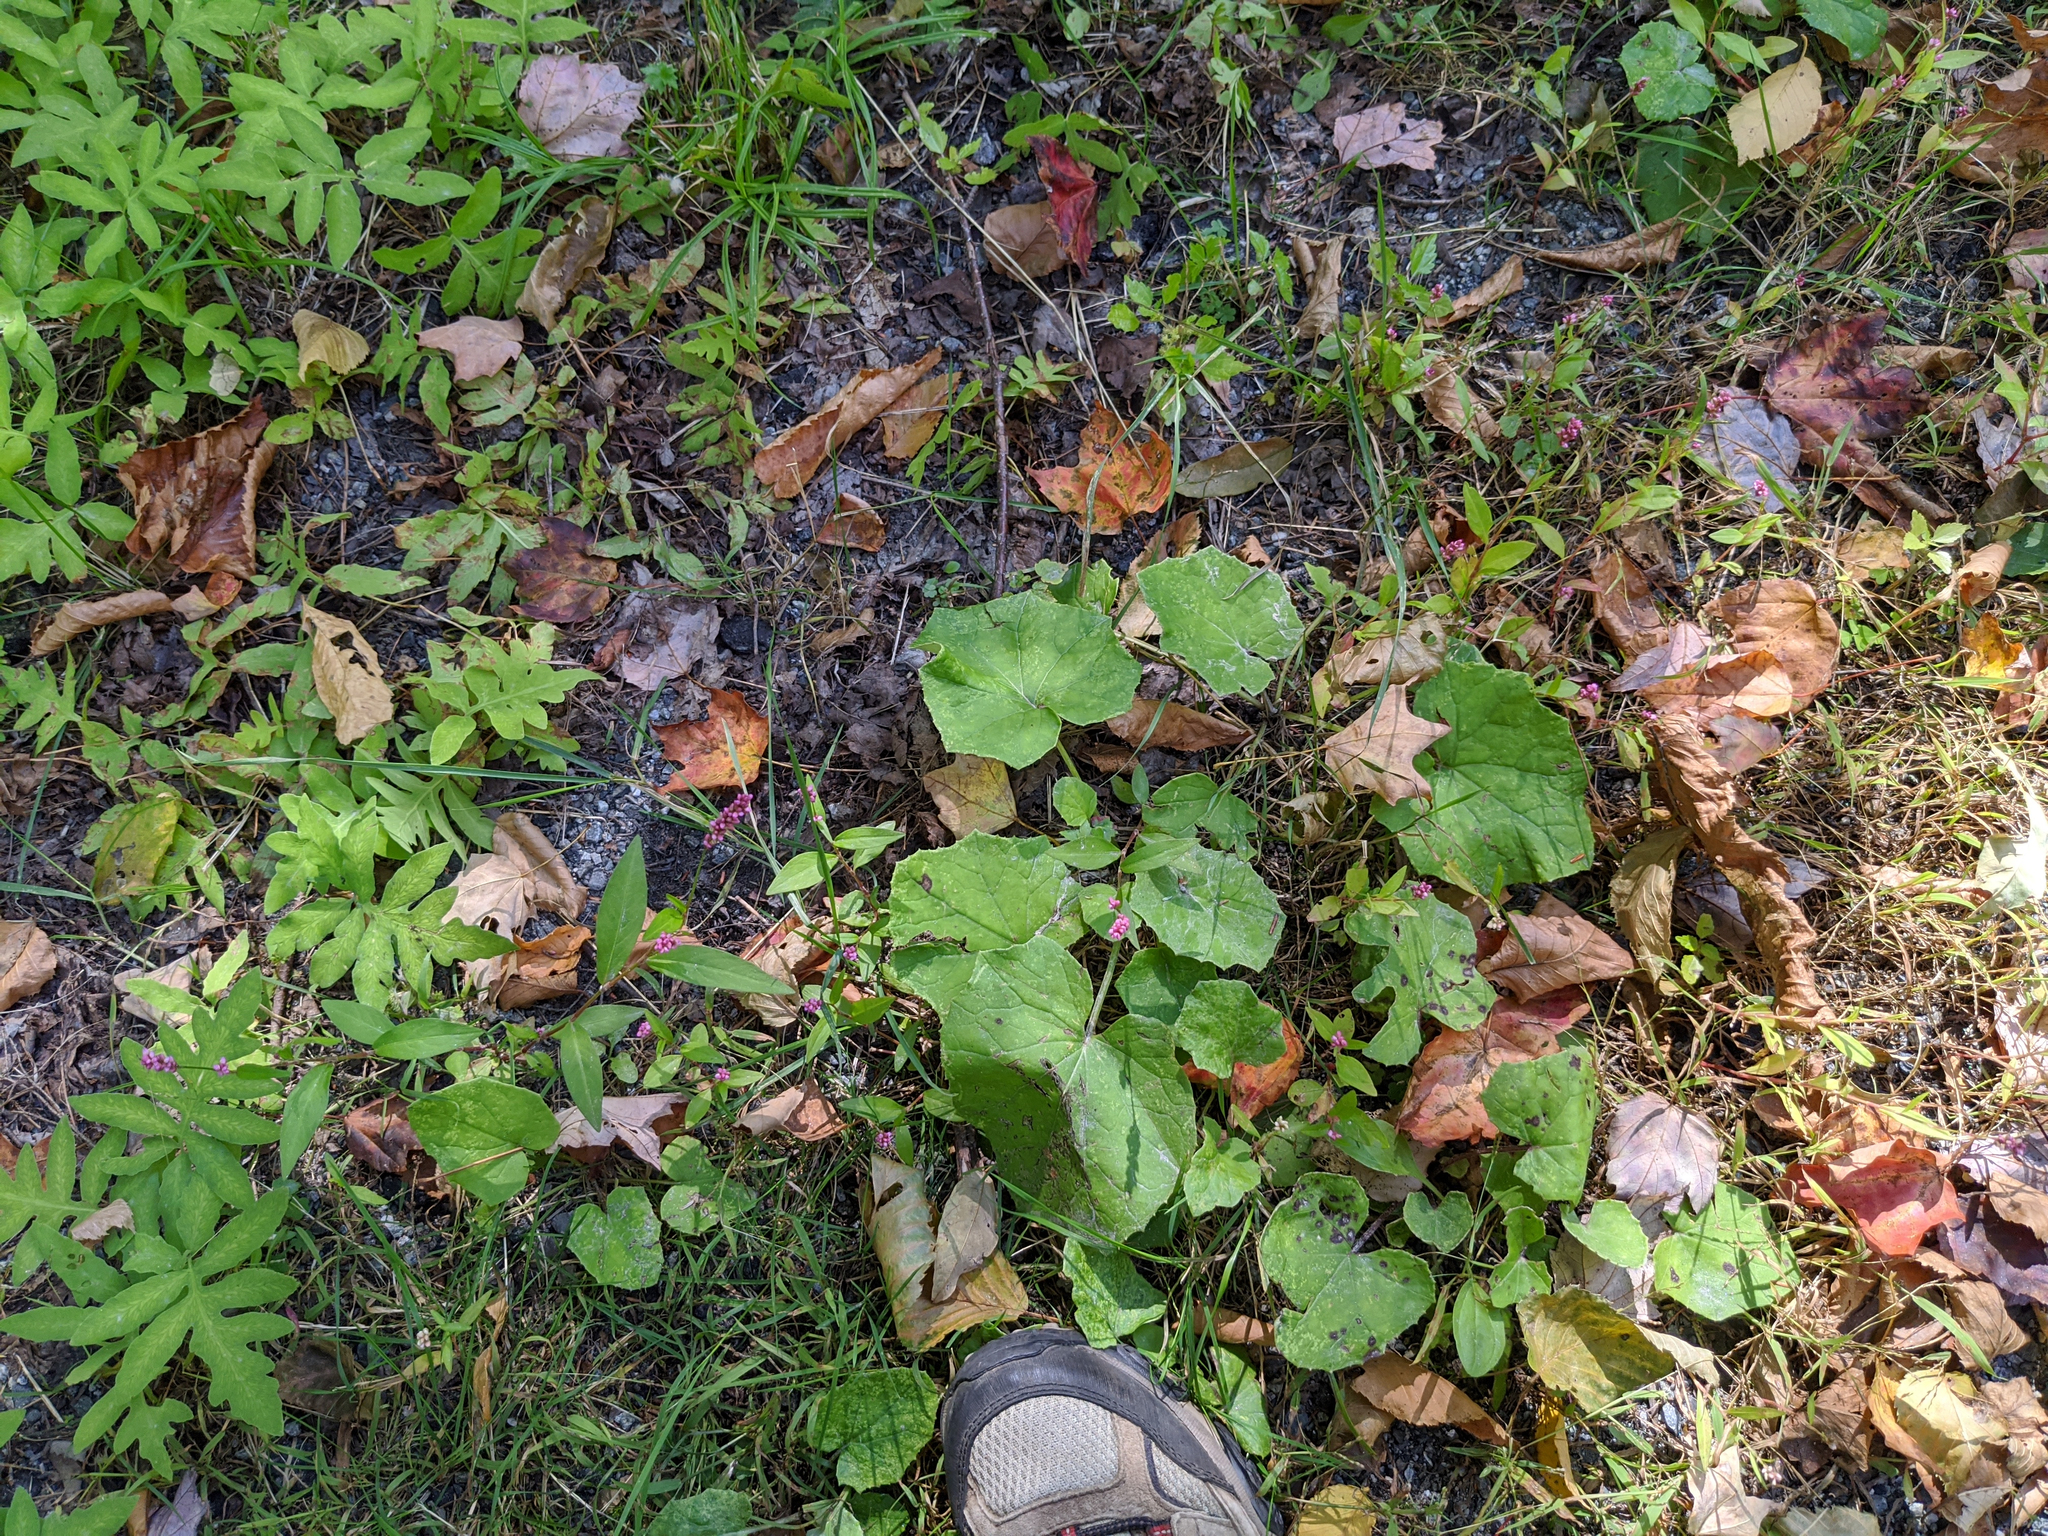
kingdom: Plantae
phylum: Tracheophyta
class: Magnoliopsida
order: Asterales
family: Asteraceae
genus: Tussilago
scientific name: Tussilago farfara
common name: Coltsfoot
